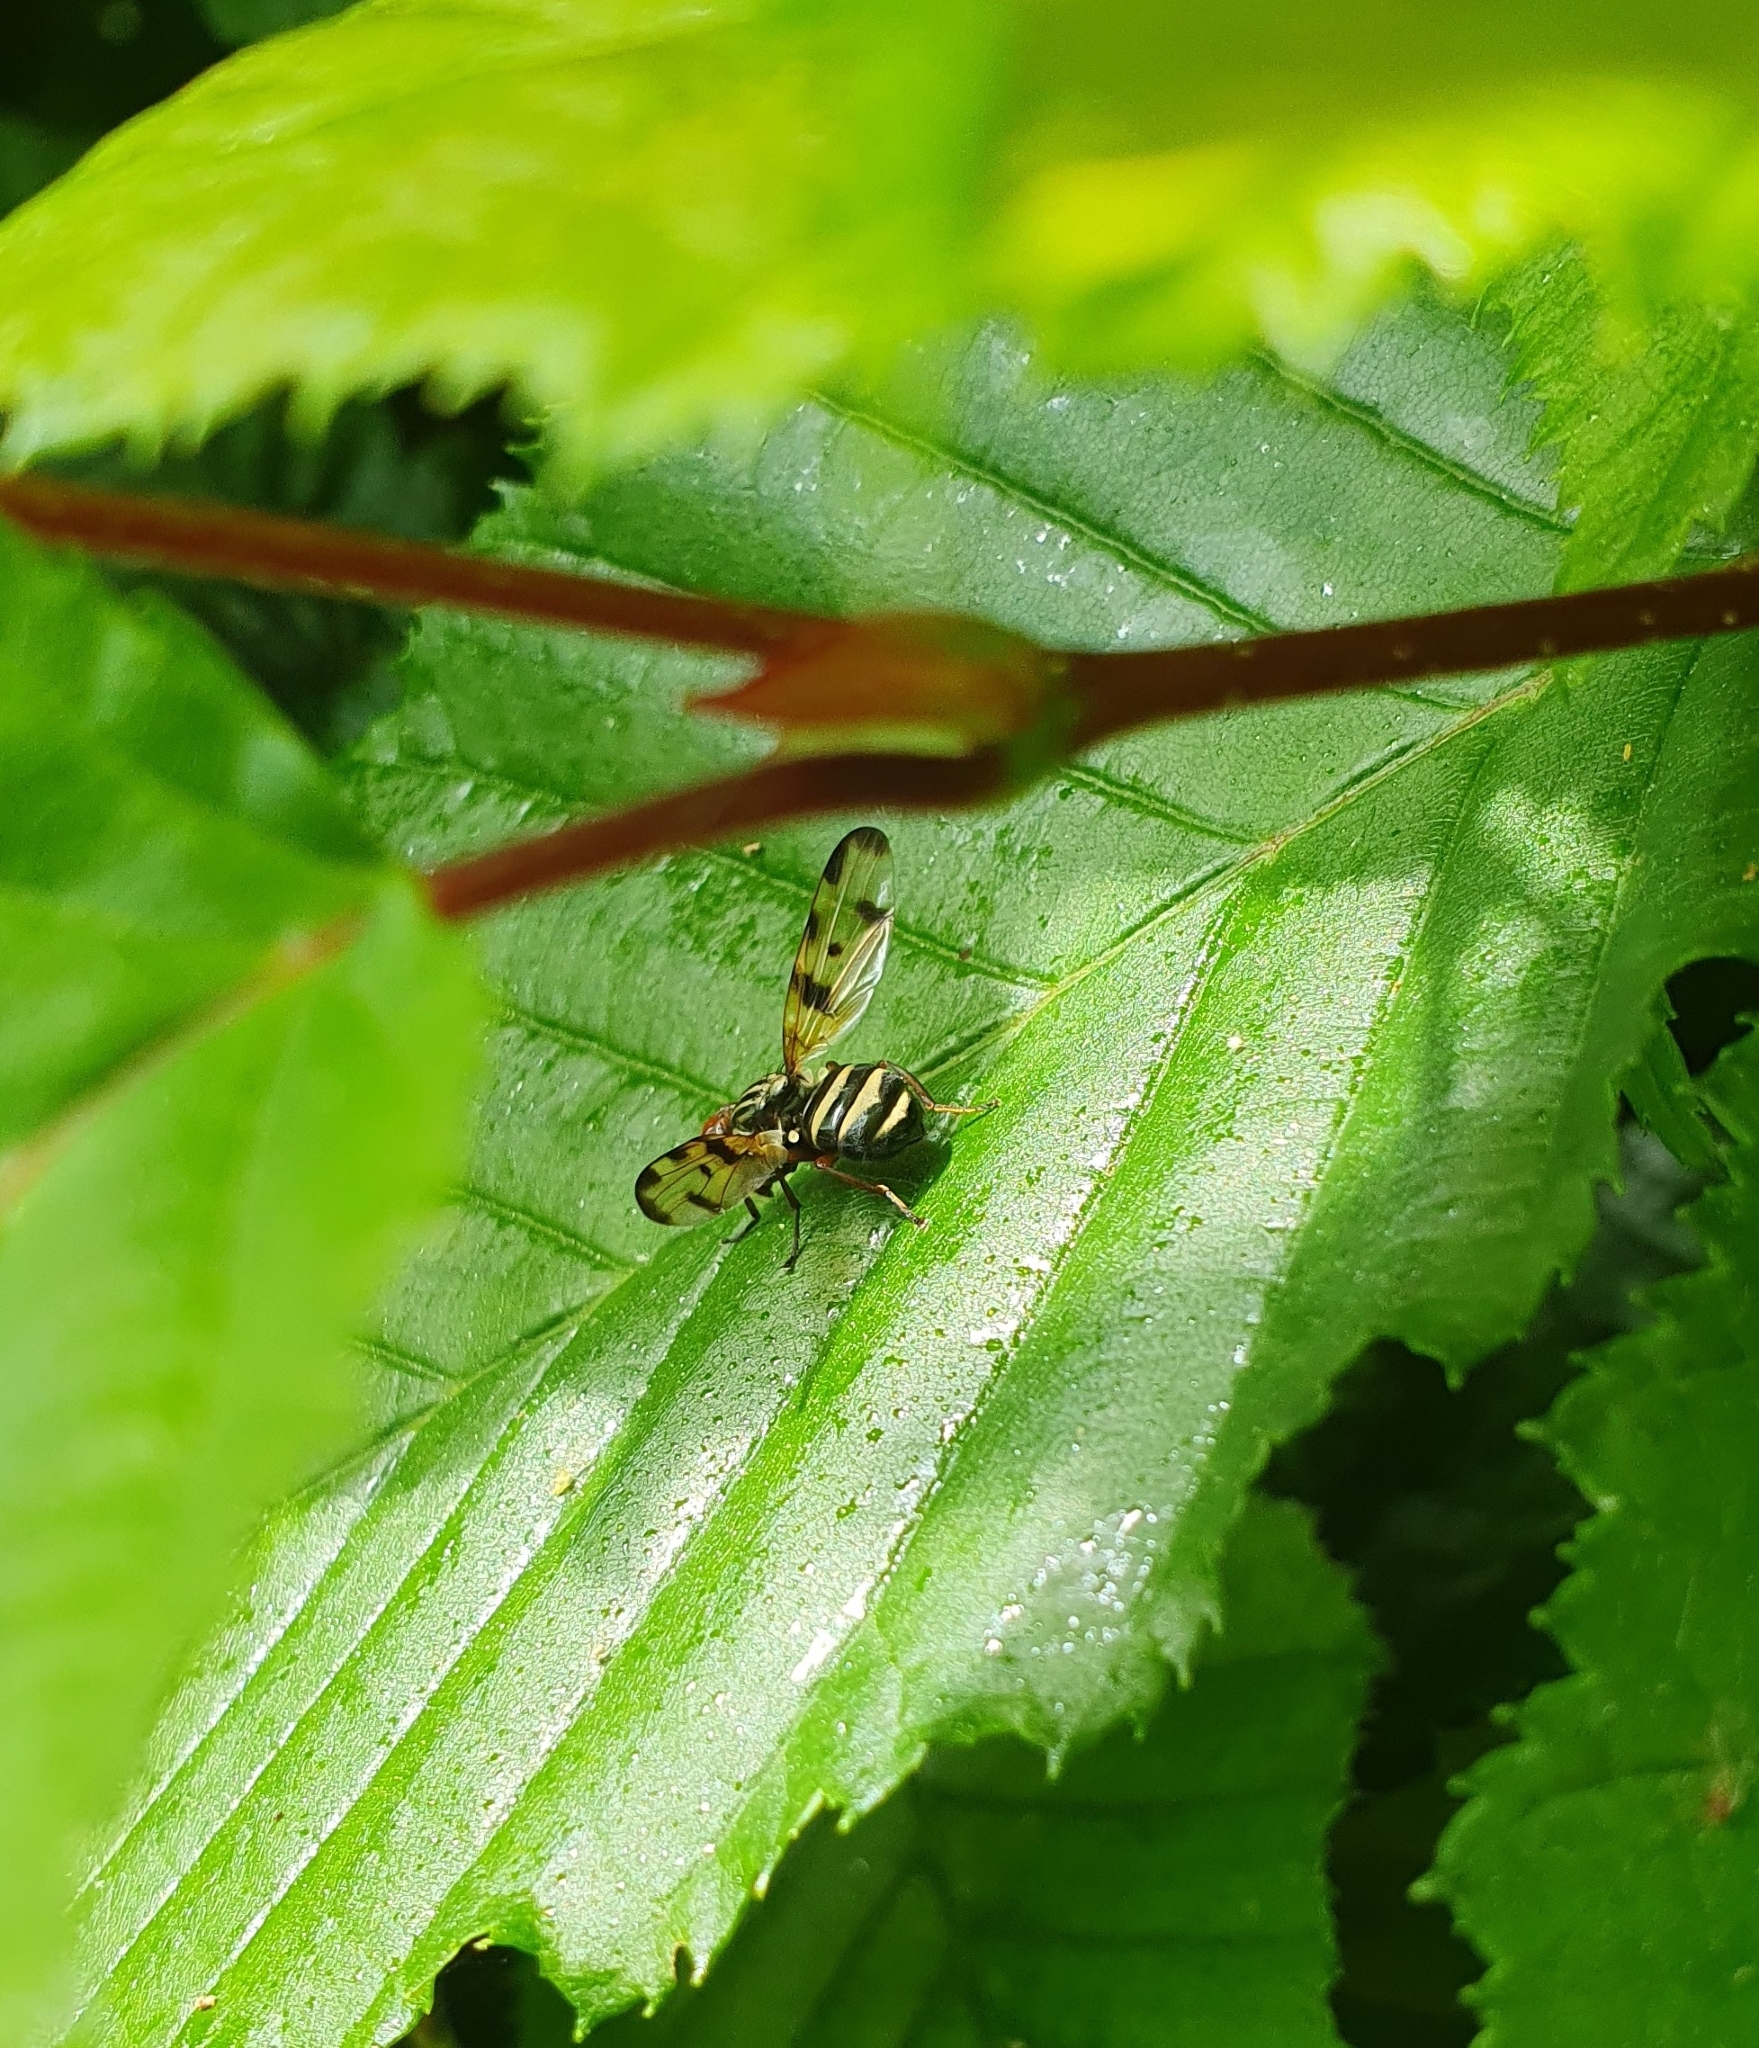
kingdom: Animalia
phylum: Arthropoda
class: Insecta
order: Diptera
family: Ulidiidae
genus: Otites
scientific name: Otites porcus
